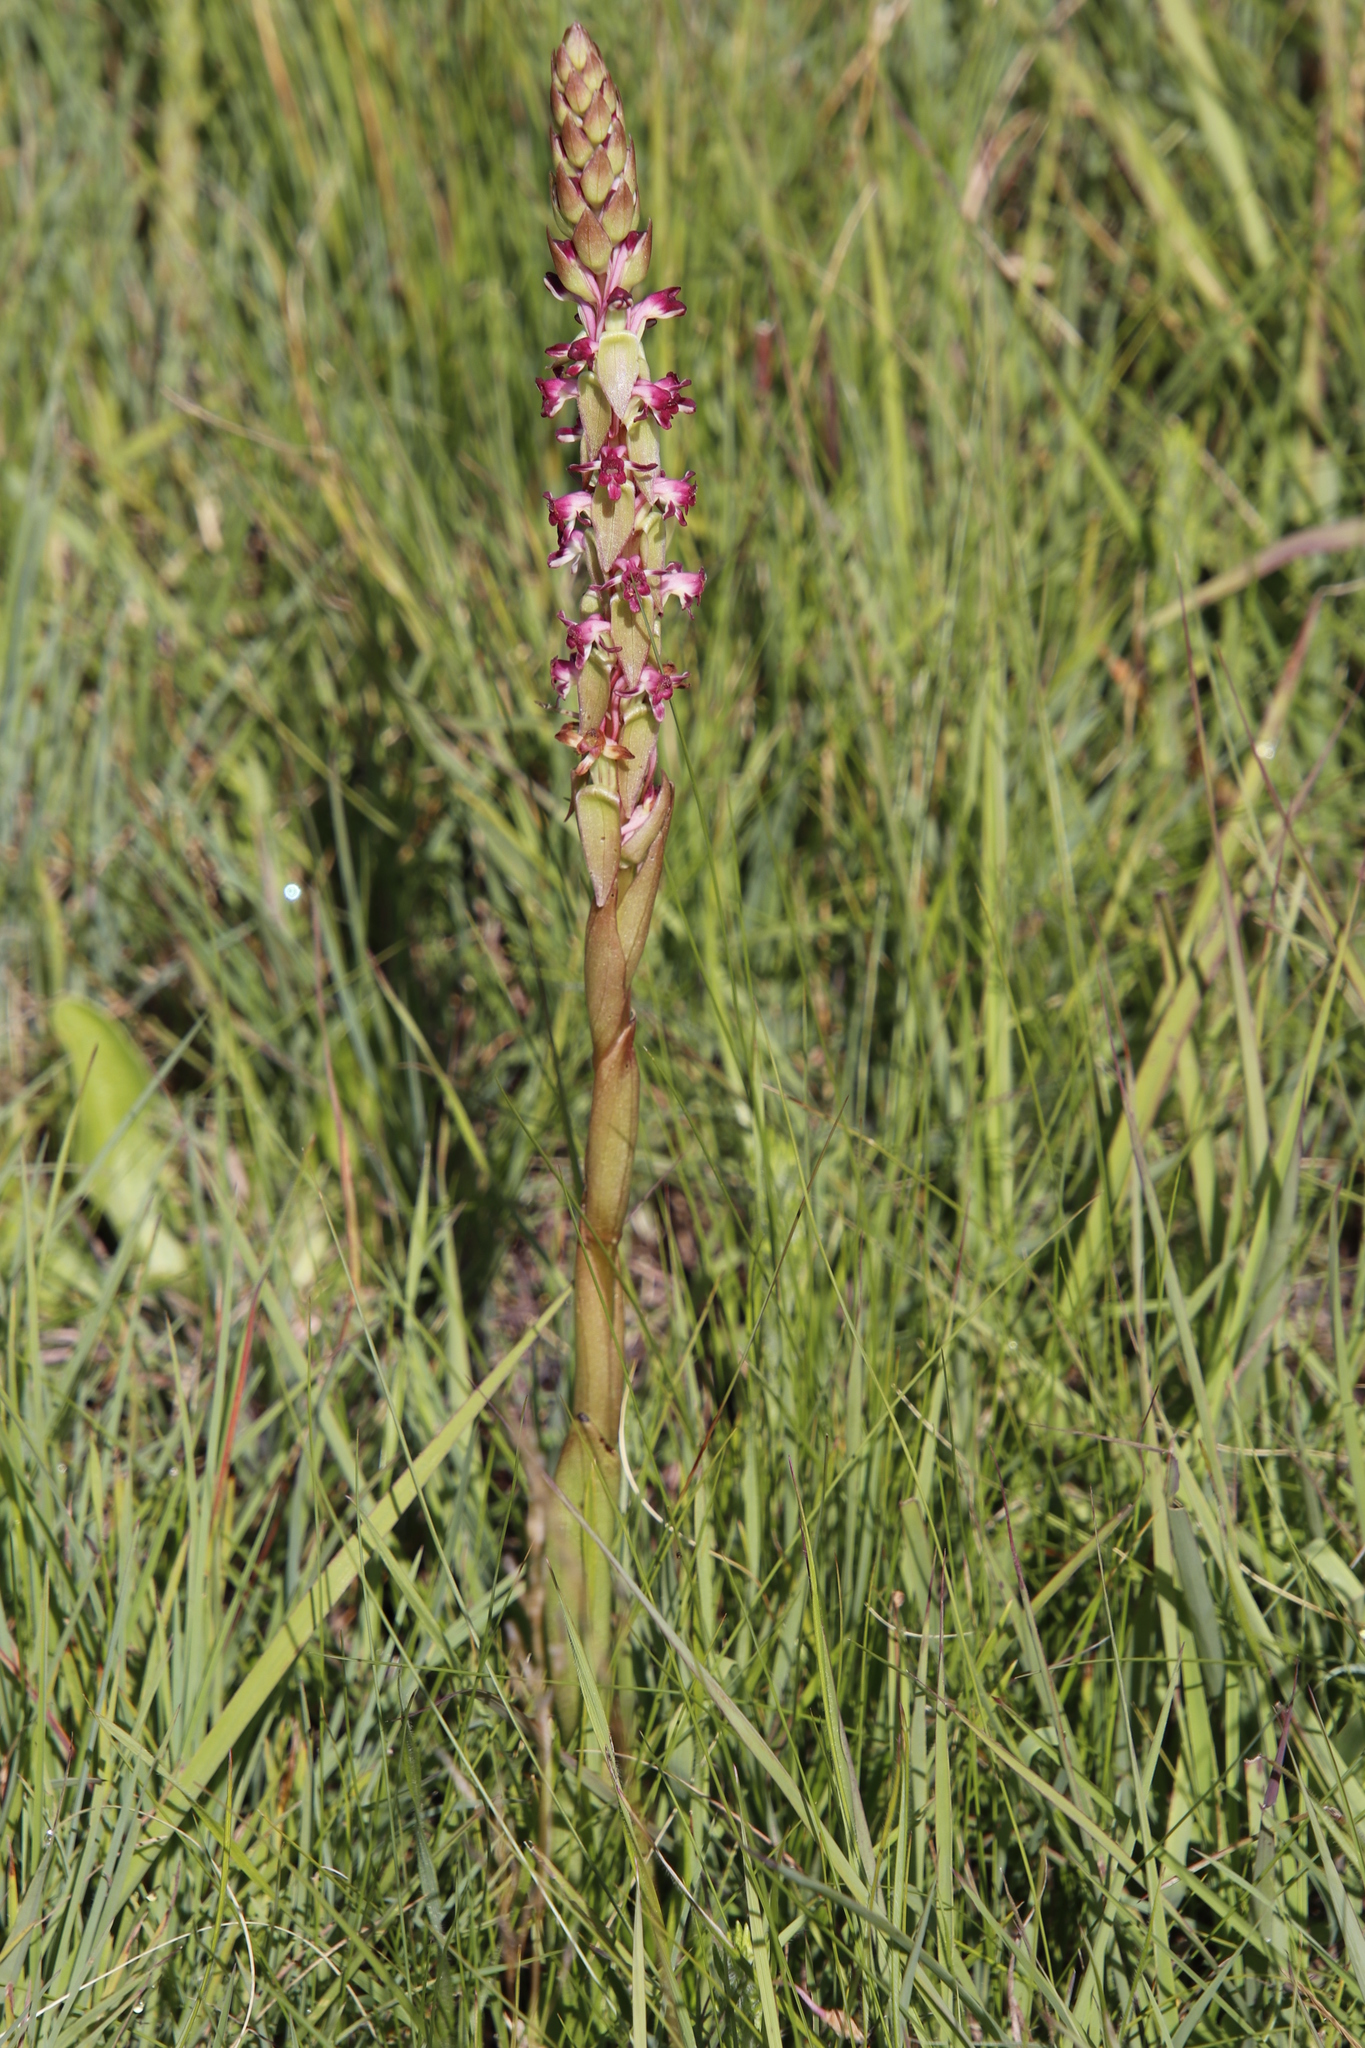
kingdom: Plantae
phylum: Tracheophyta
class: Liliopsida
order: Asparagales
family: Orchidaceae
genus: Satyrium
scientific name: Satyrium longicauda
